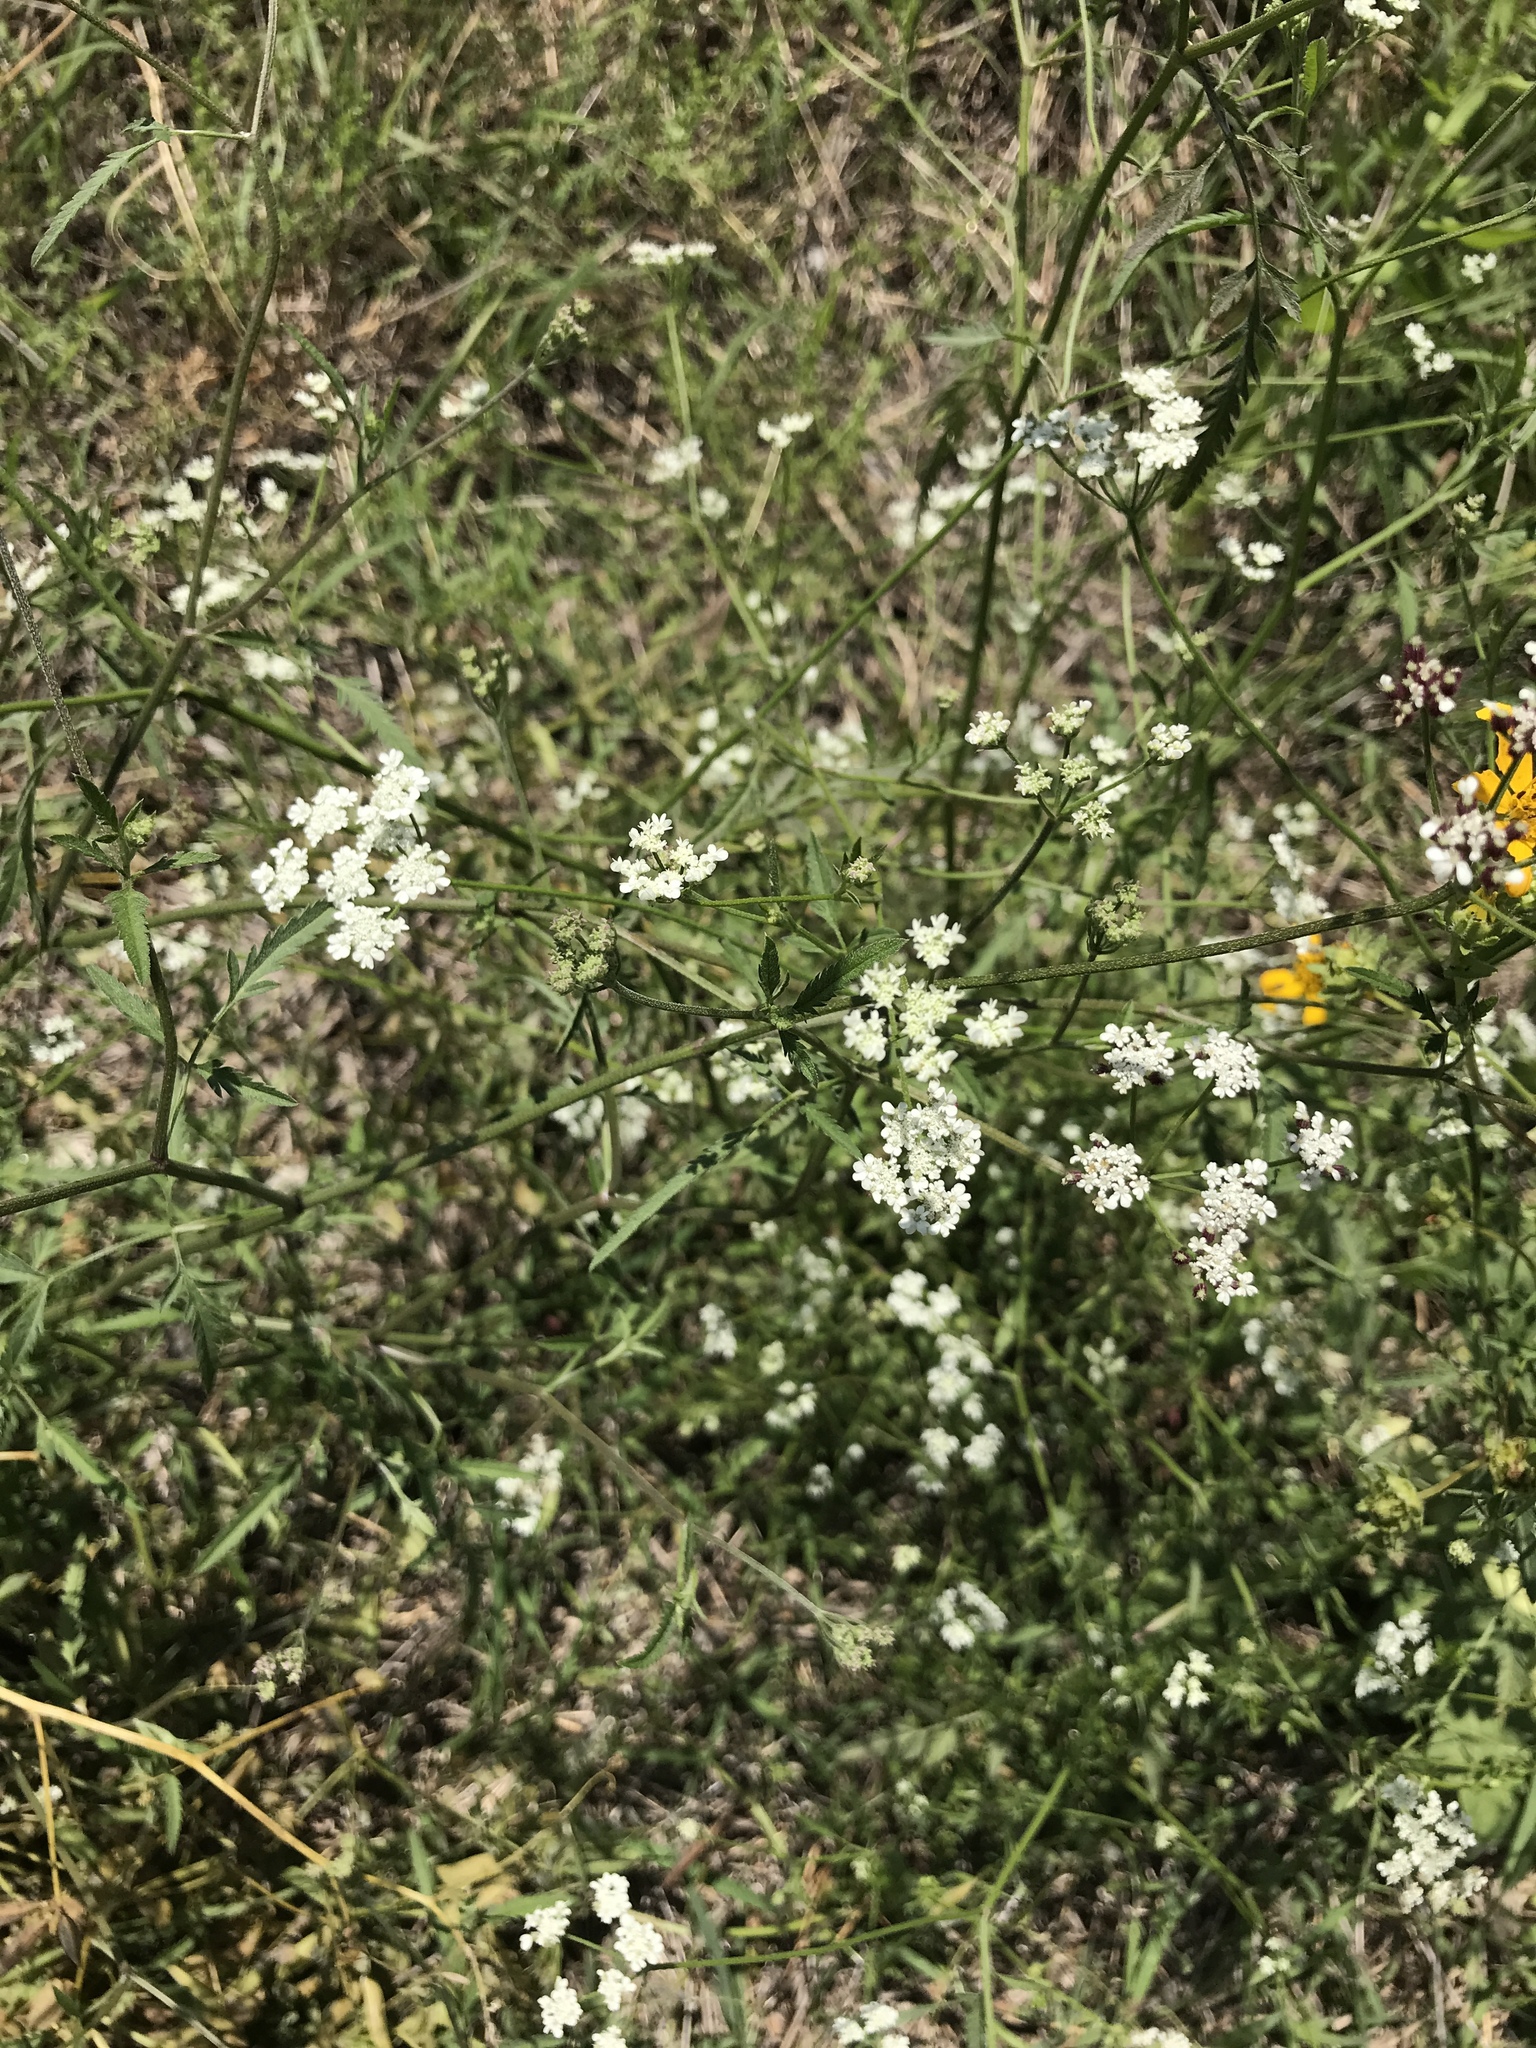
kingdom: Plantae
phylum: Tracheophyta
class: Magnoliopsida
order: Apiales
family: Apiaceae
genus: Torilis
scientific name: Torilis arvensis
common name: Spreading hedge-parsley
